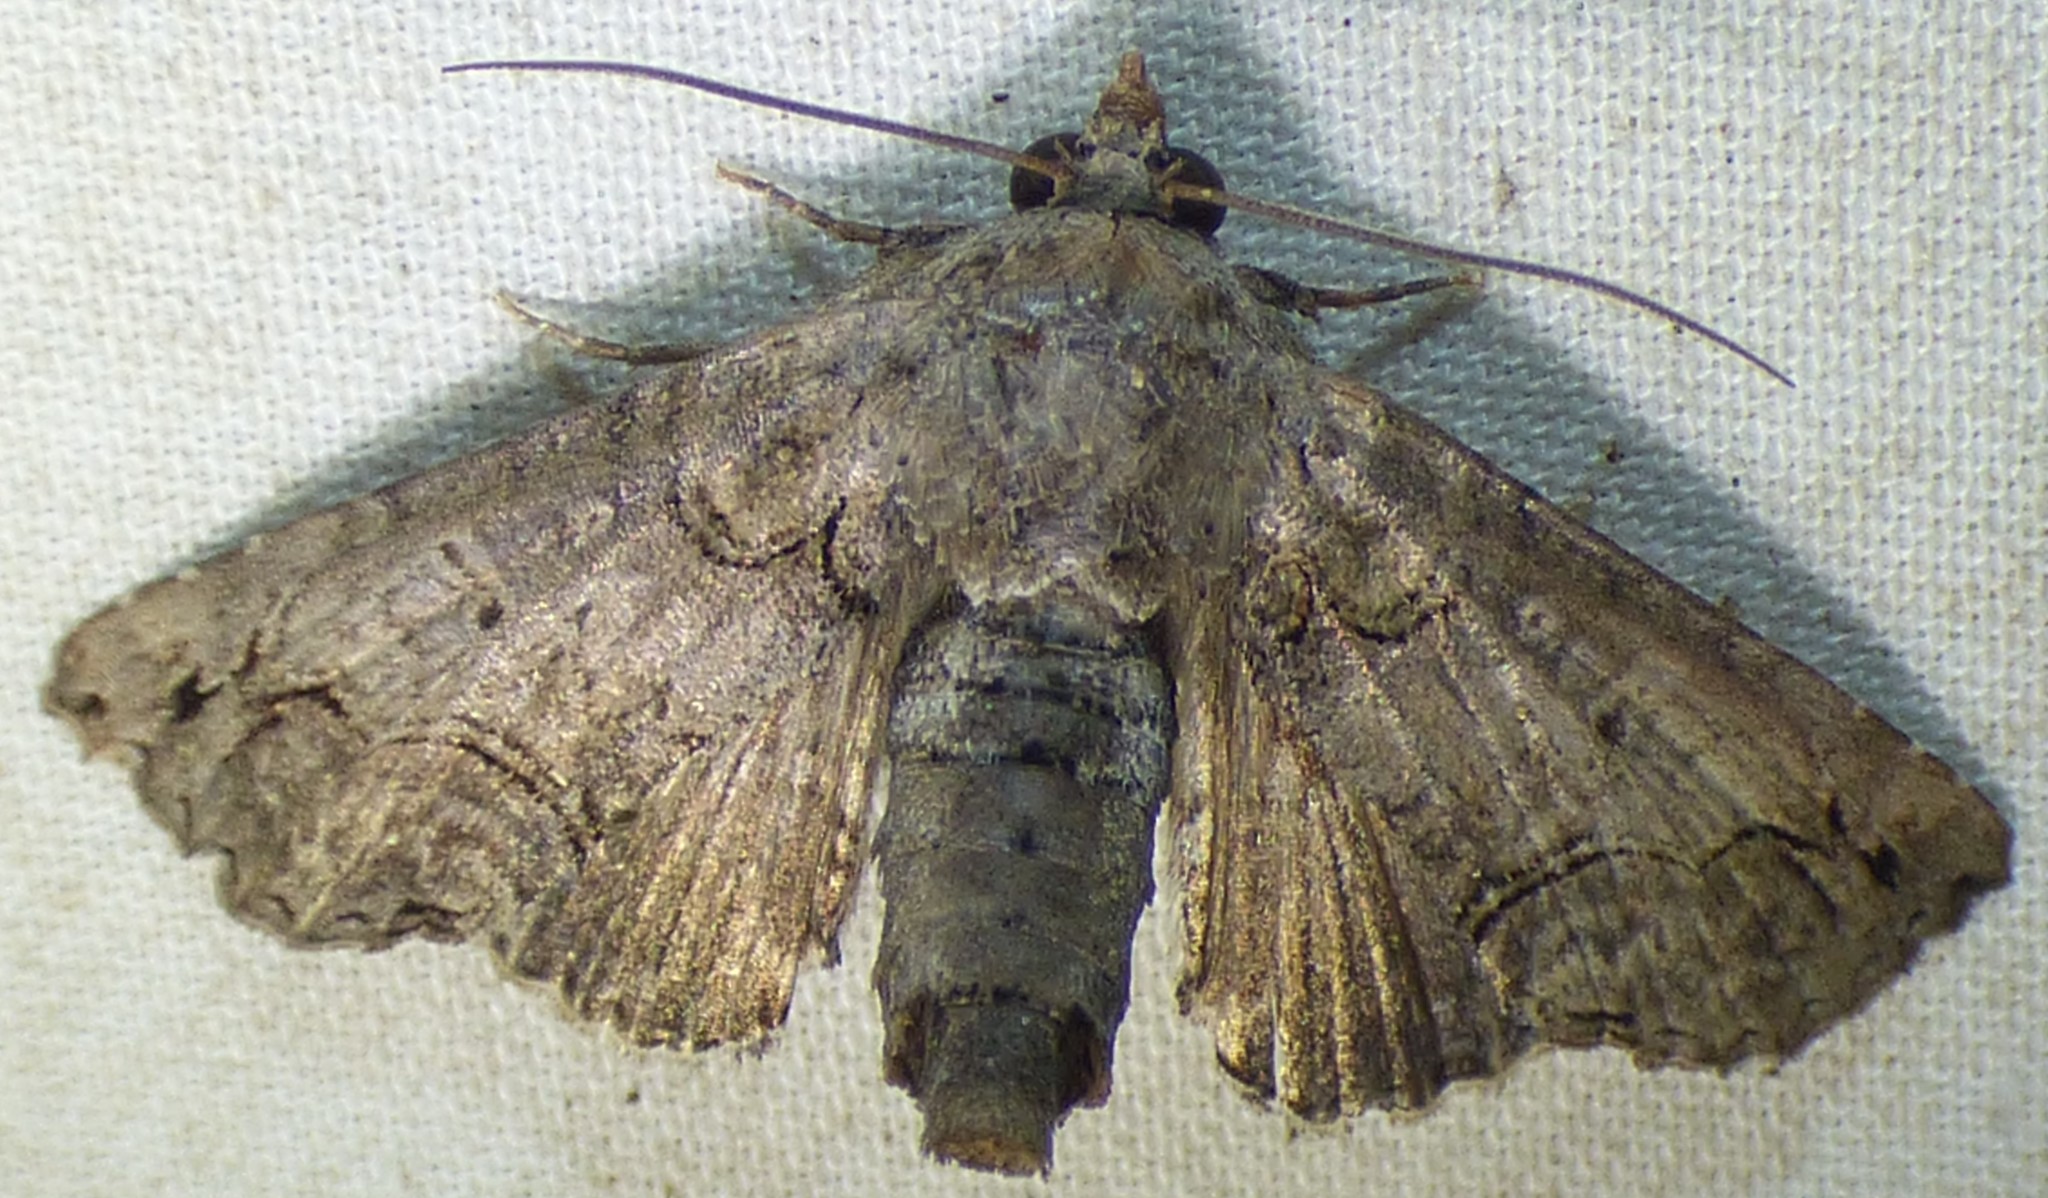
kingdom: Animalia
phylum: Arthropoda
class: Insecta
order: Lepidoptera
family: Euteliidae
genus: Paectes
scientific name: Paectes abrostoloides
